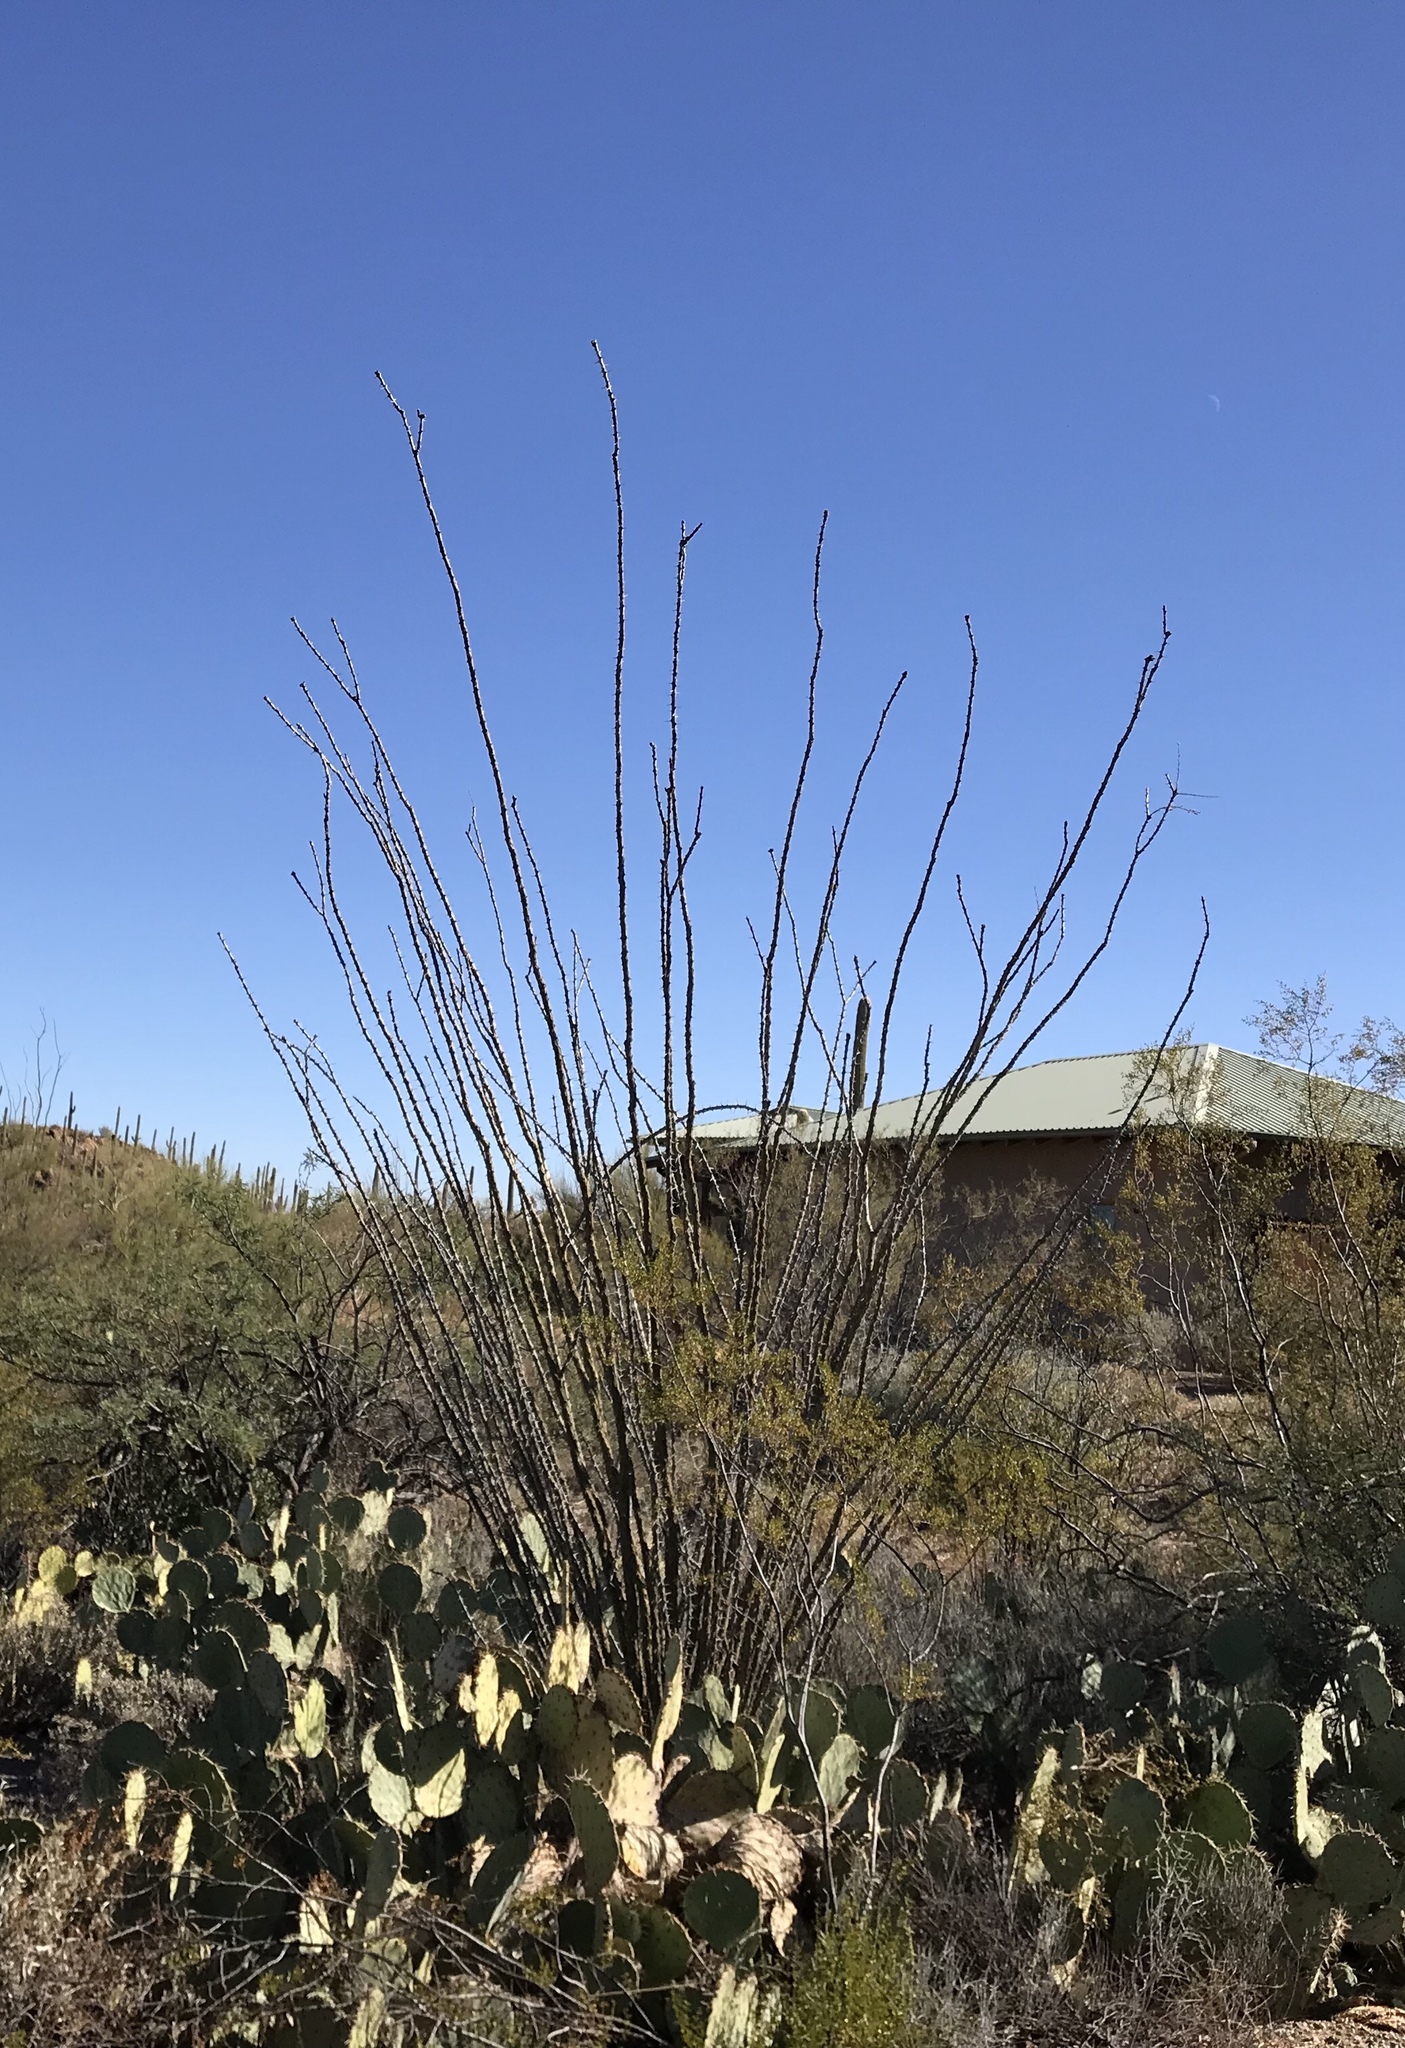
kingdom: Plantae
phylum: Tracheophyta
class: Magnoliopsida
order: Ericales
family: Fouquieriaceae
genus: Fouquieria
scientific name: Fouquieria splendens
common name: Vine-cactus
